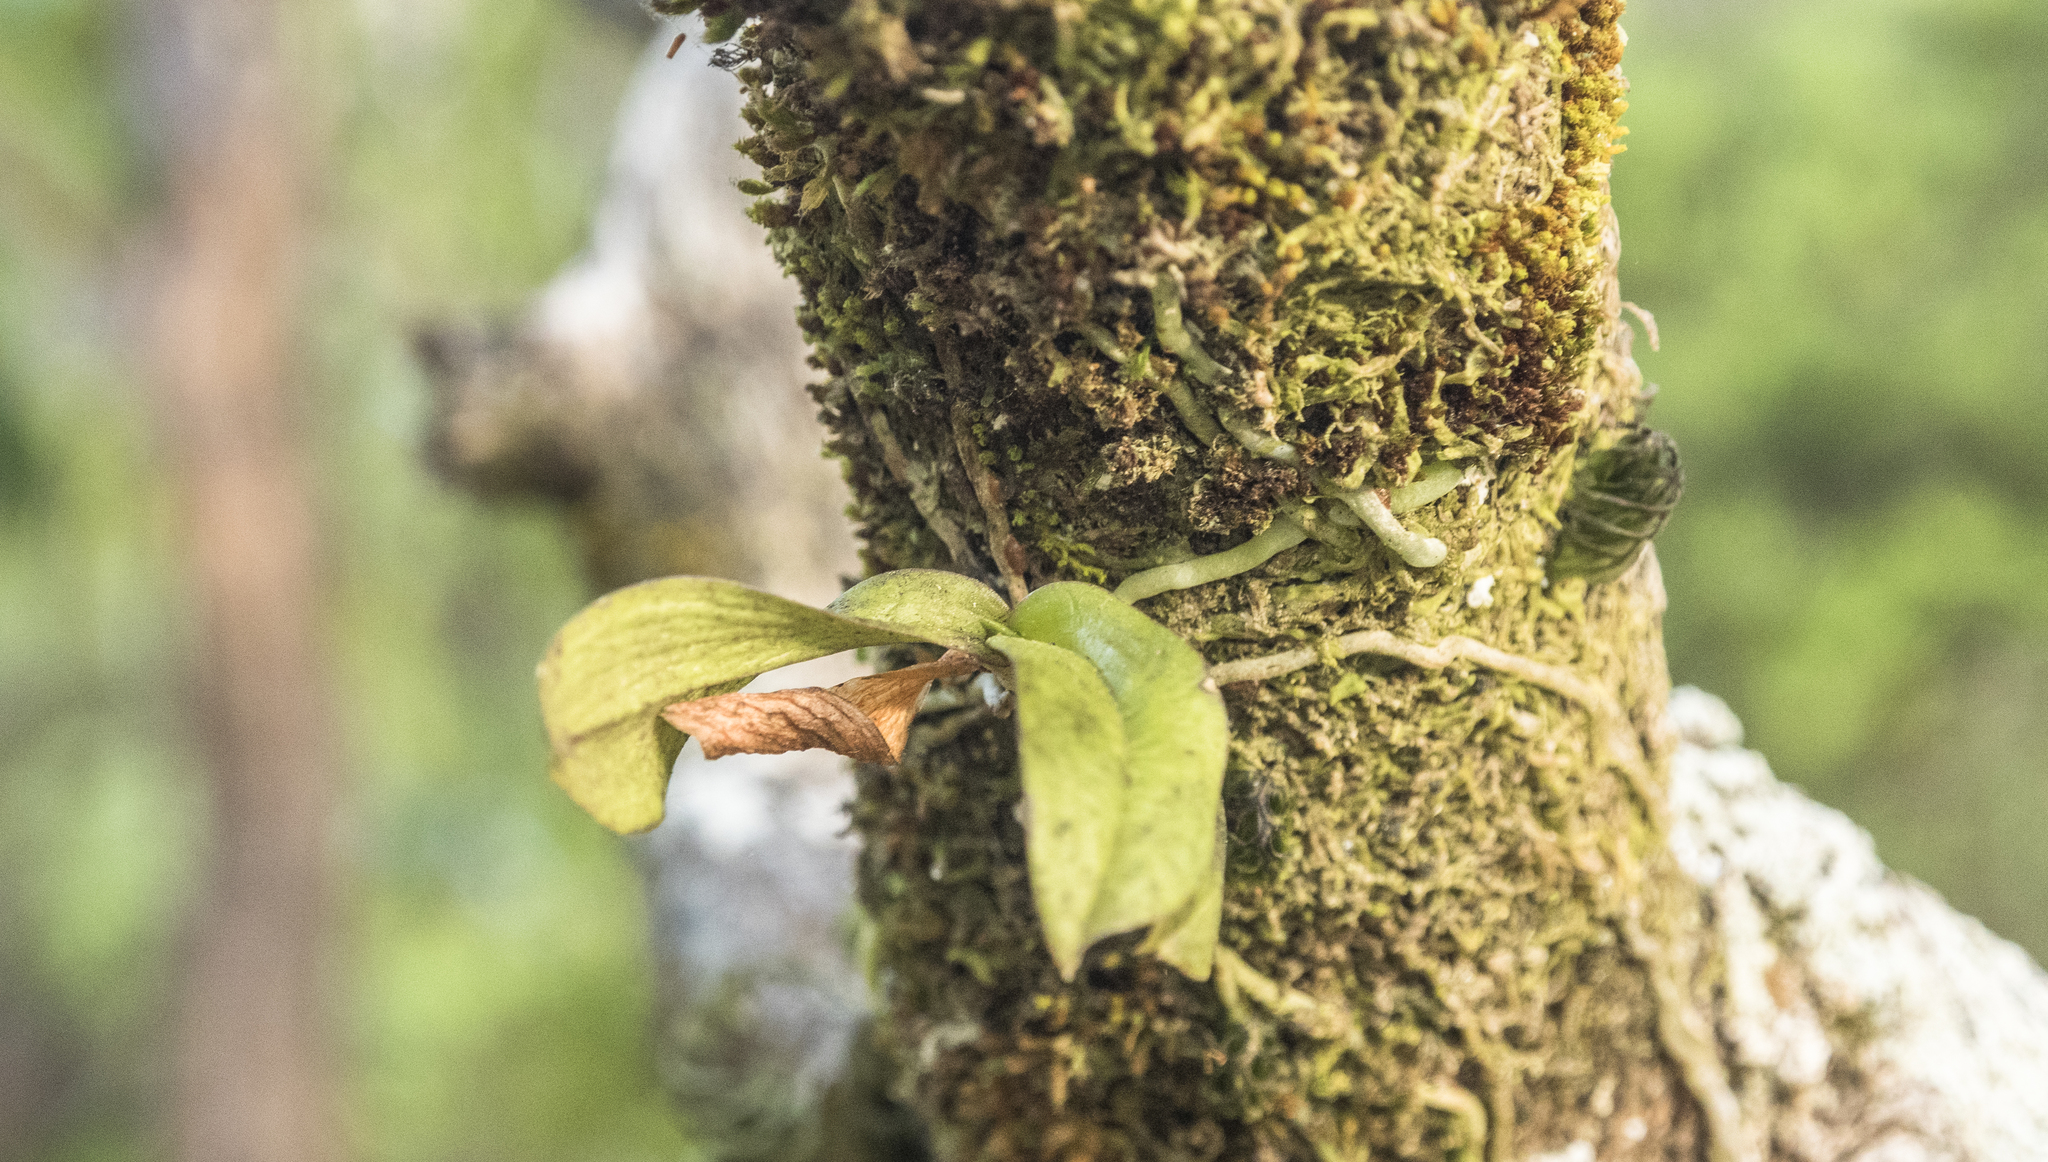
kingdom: Plantae
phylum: Tracheophyta
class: Liliopsida
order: Asparagales
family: Orchidaceae
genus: Drymoanthus
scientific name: Drymoanthus adversus
